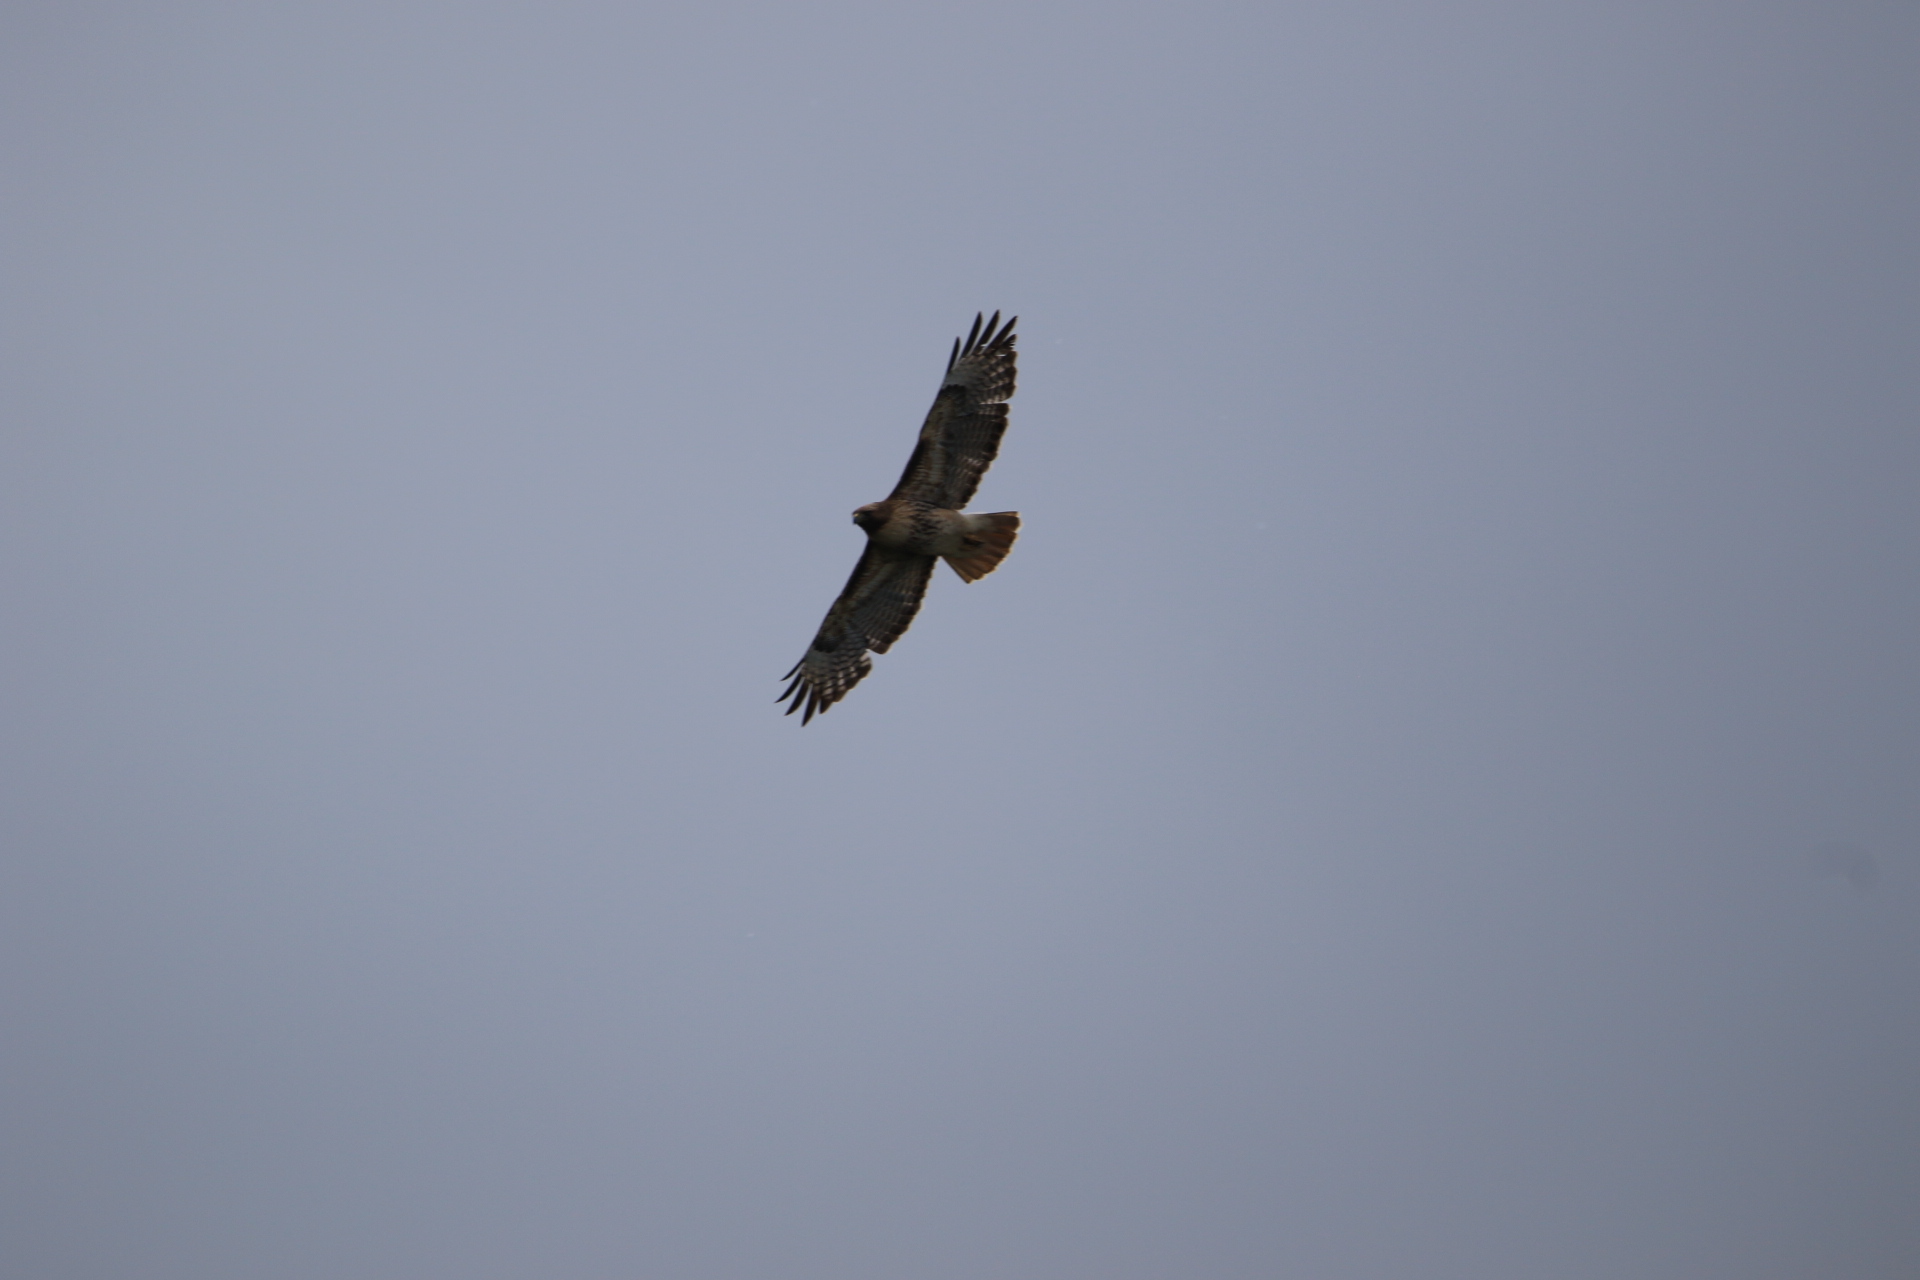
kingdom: Animalia
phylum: Chordata
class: Aves
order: Accipitriformes
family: Accipitridae
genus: Buteo
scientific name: Buteo jamaicensis
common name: Red-tailed hawk
